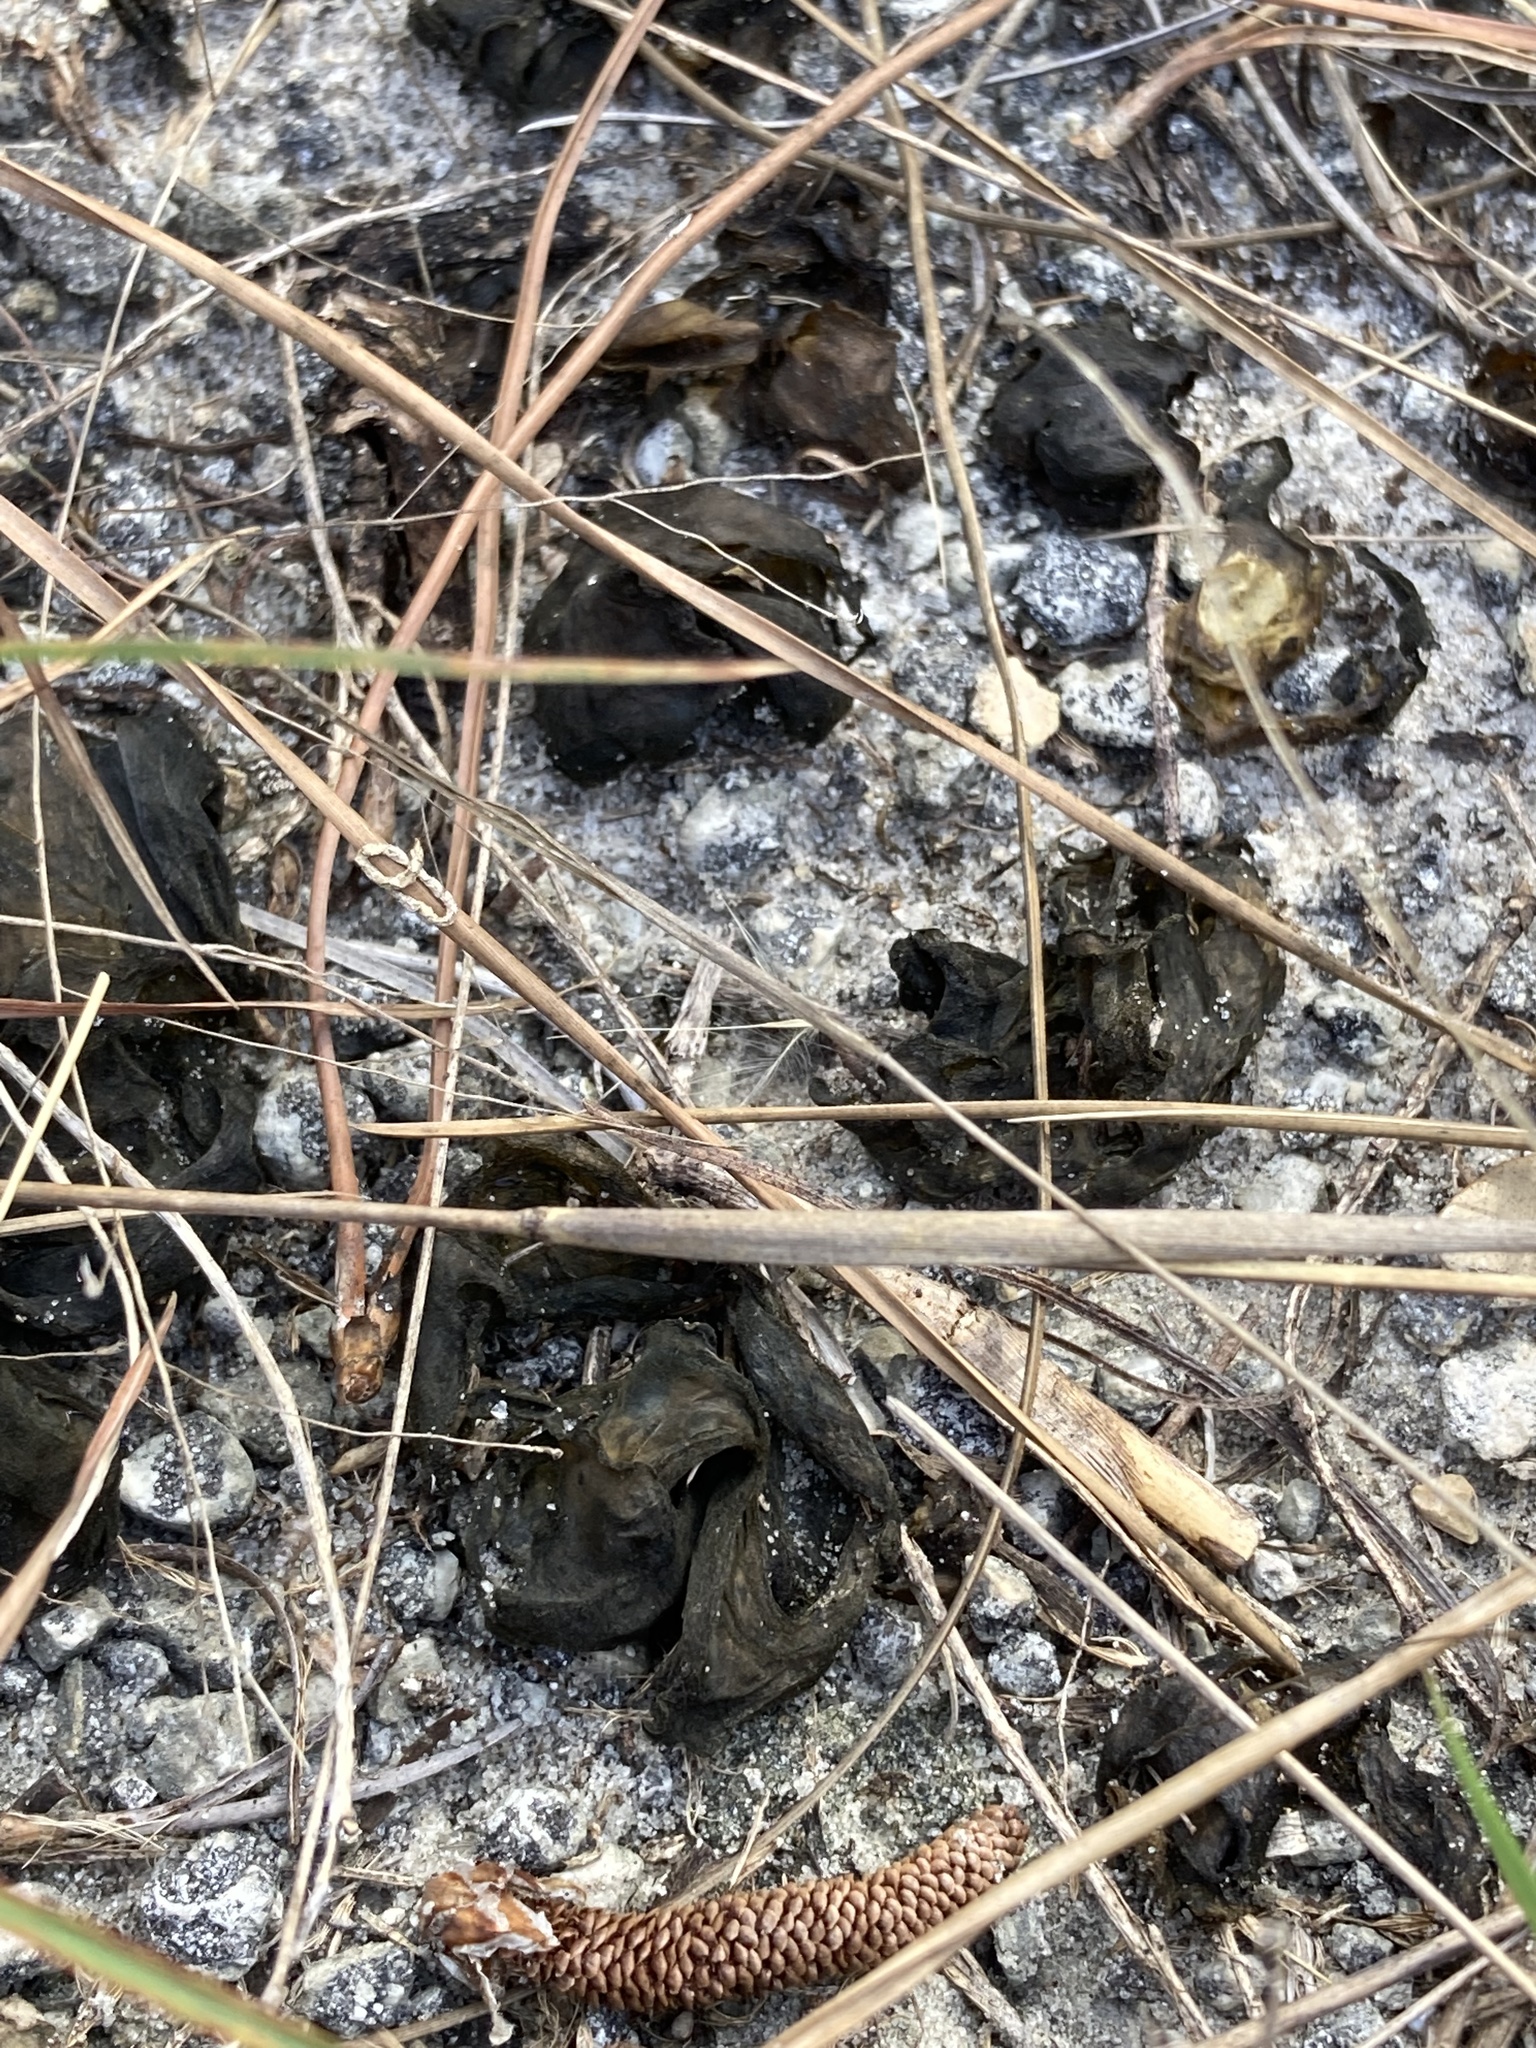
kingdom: Bacteria
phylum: Cyanobacteria
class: Cyanobacteriia
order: Cyanobacteriales
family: Nostocaceae
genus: Nostoc
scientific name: Nostoc commune
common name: Star jelly
